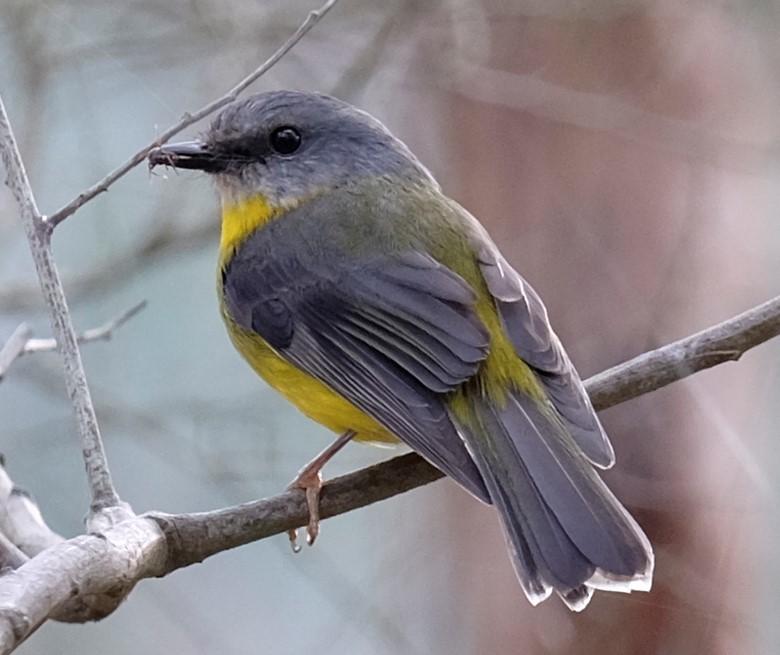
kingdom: Animalia
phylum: Chordata
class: Aves
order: Passeriformes
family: Petroicidae
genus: Eopsaltria
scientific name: Eopsaltria australis
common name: Eastern yellow robin
